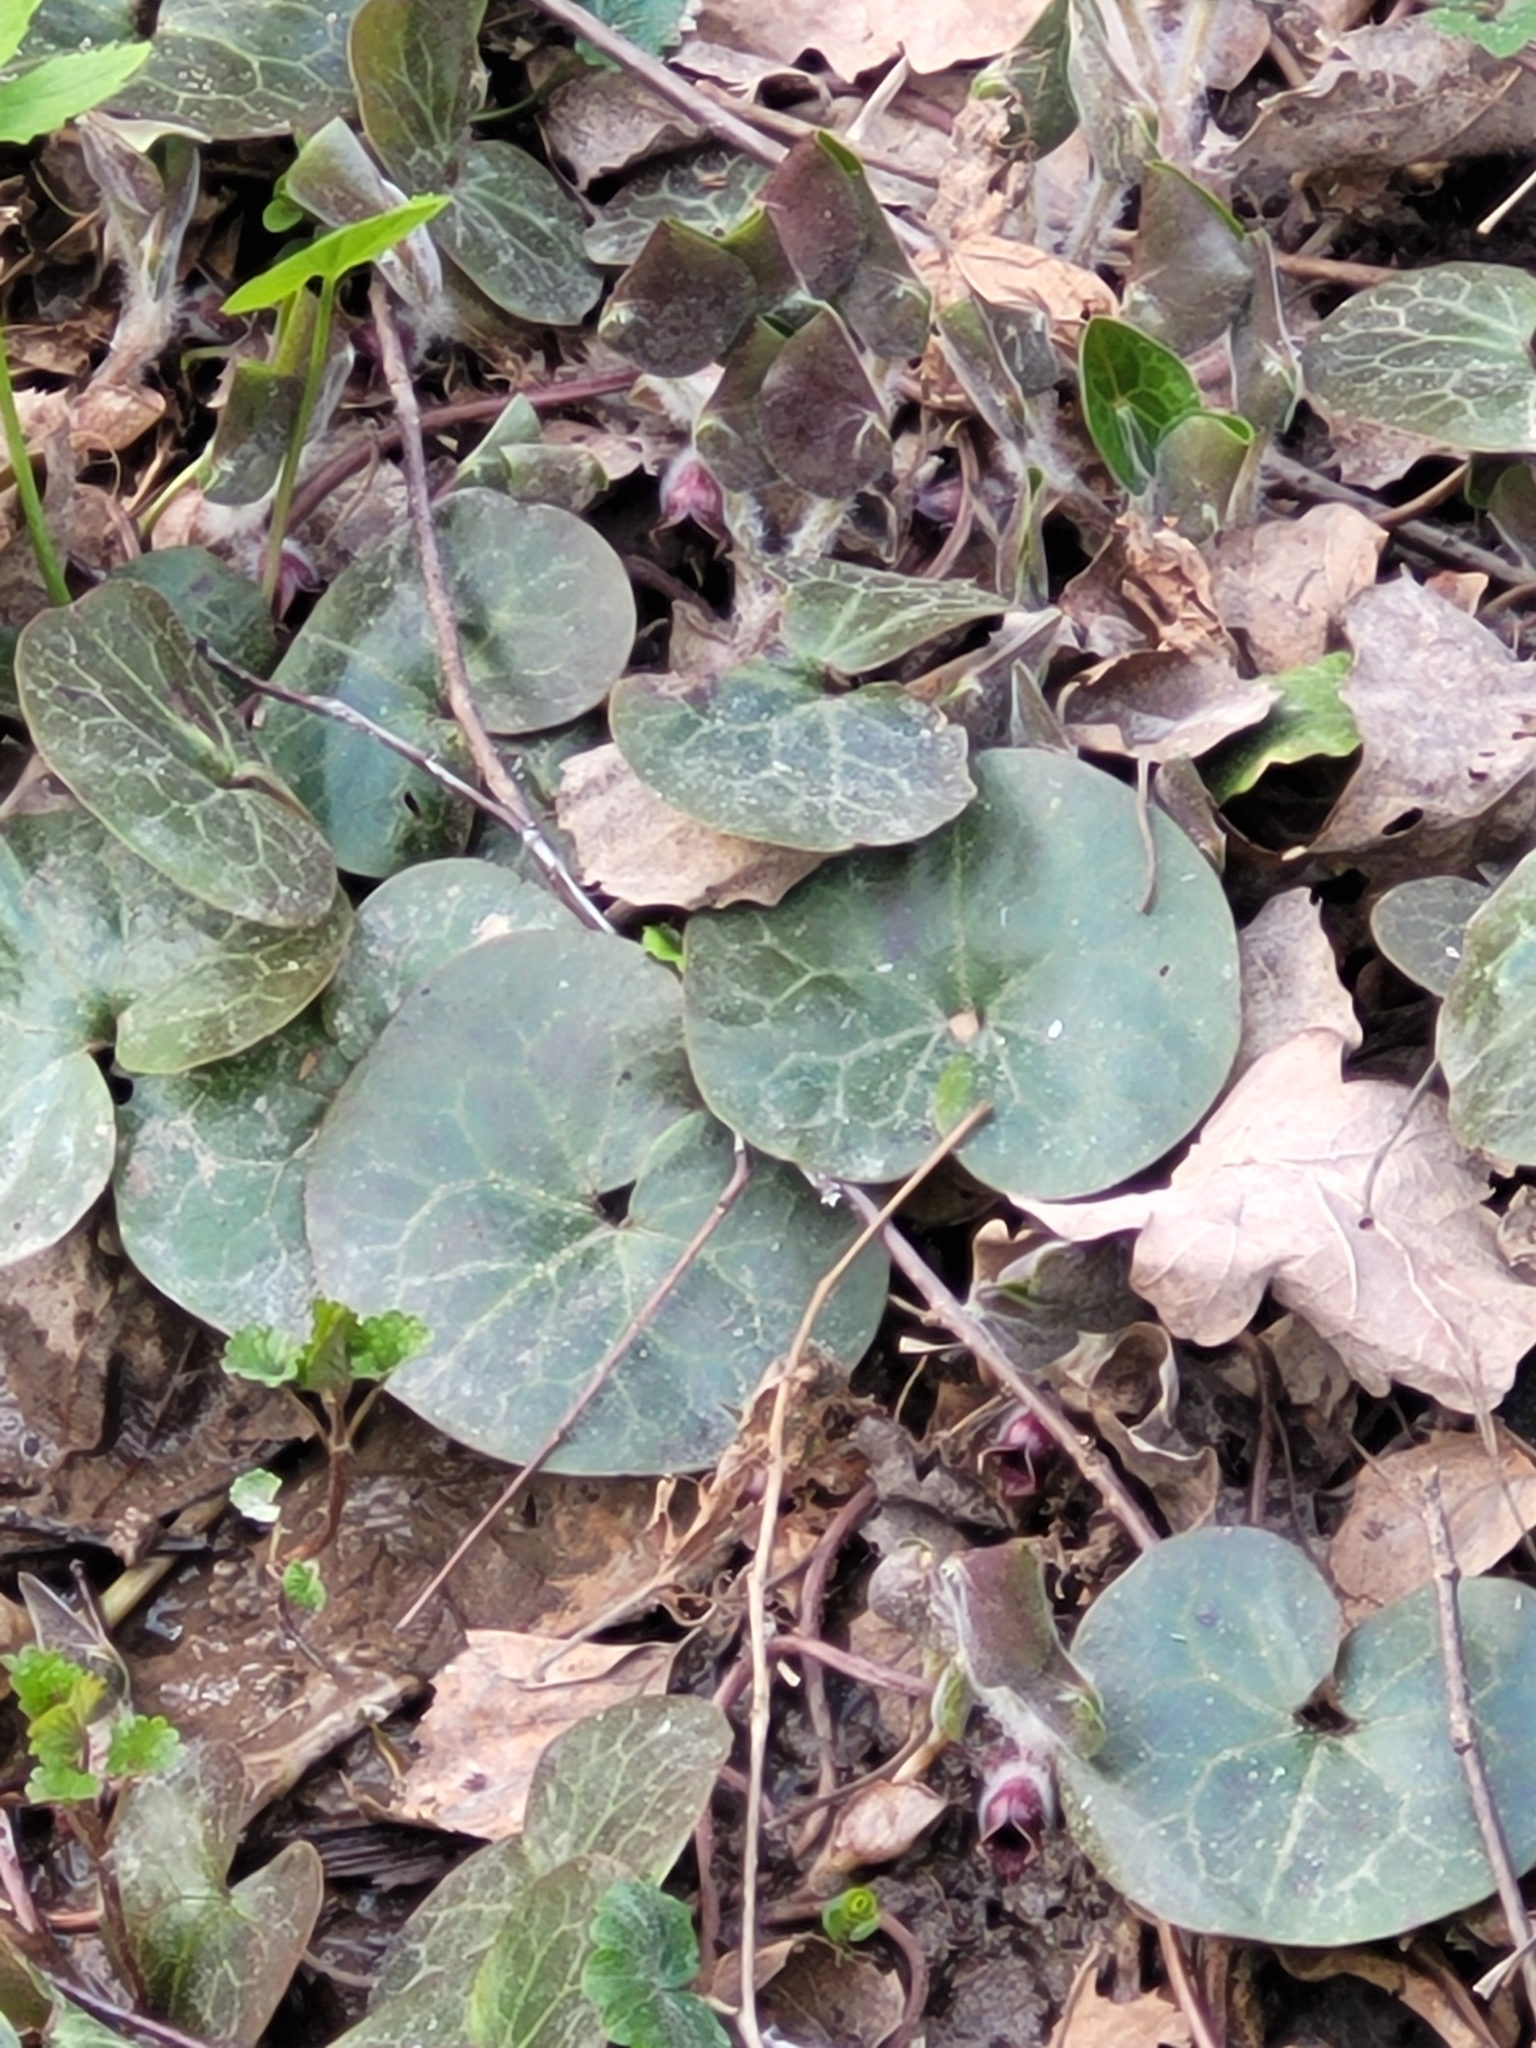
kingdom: Plantae
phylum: Tracheophyta
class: Magnoliopsida
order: Piperales
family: Aristolochiaceae
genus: Asarum
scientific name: Asarum europaeum
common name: Asarabacca
